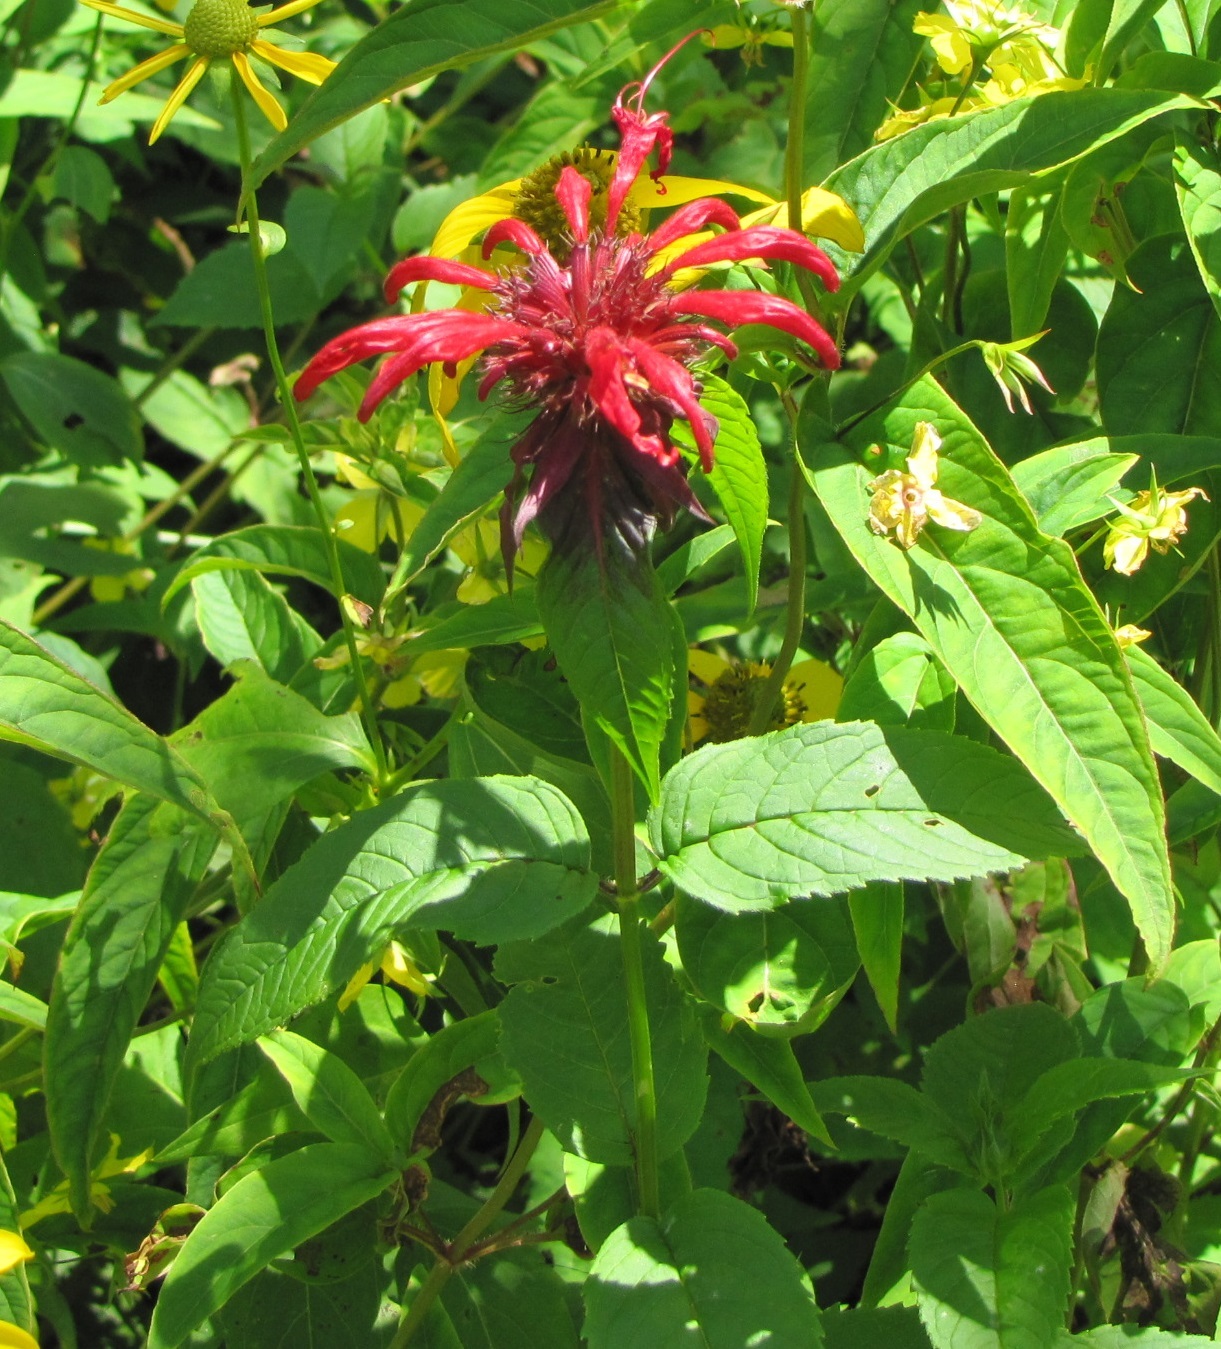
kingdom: Plantae
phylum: Tracheophyta
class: Magnoliopsida
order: Lamiales
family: Lamiaceae
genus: Monarda
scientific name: Monarda didyma
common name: Beebalm
